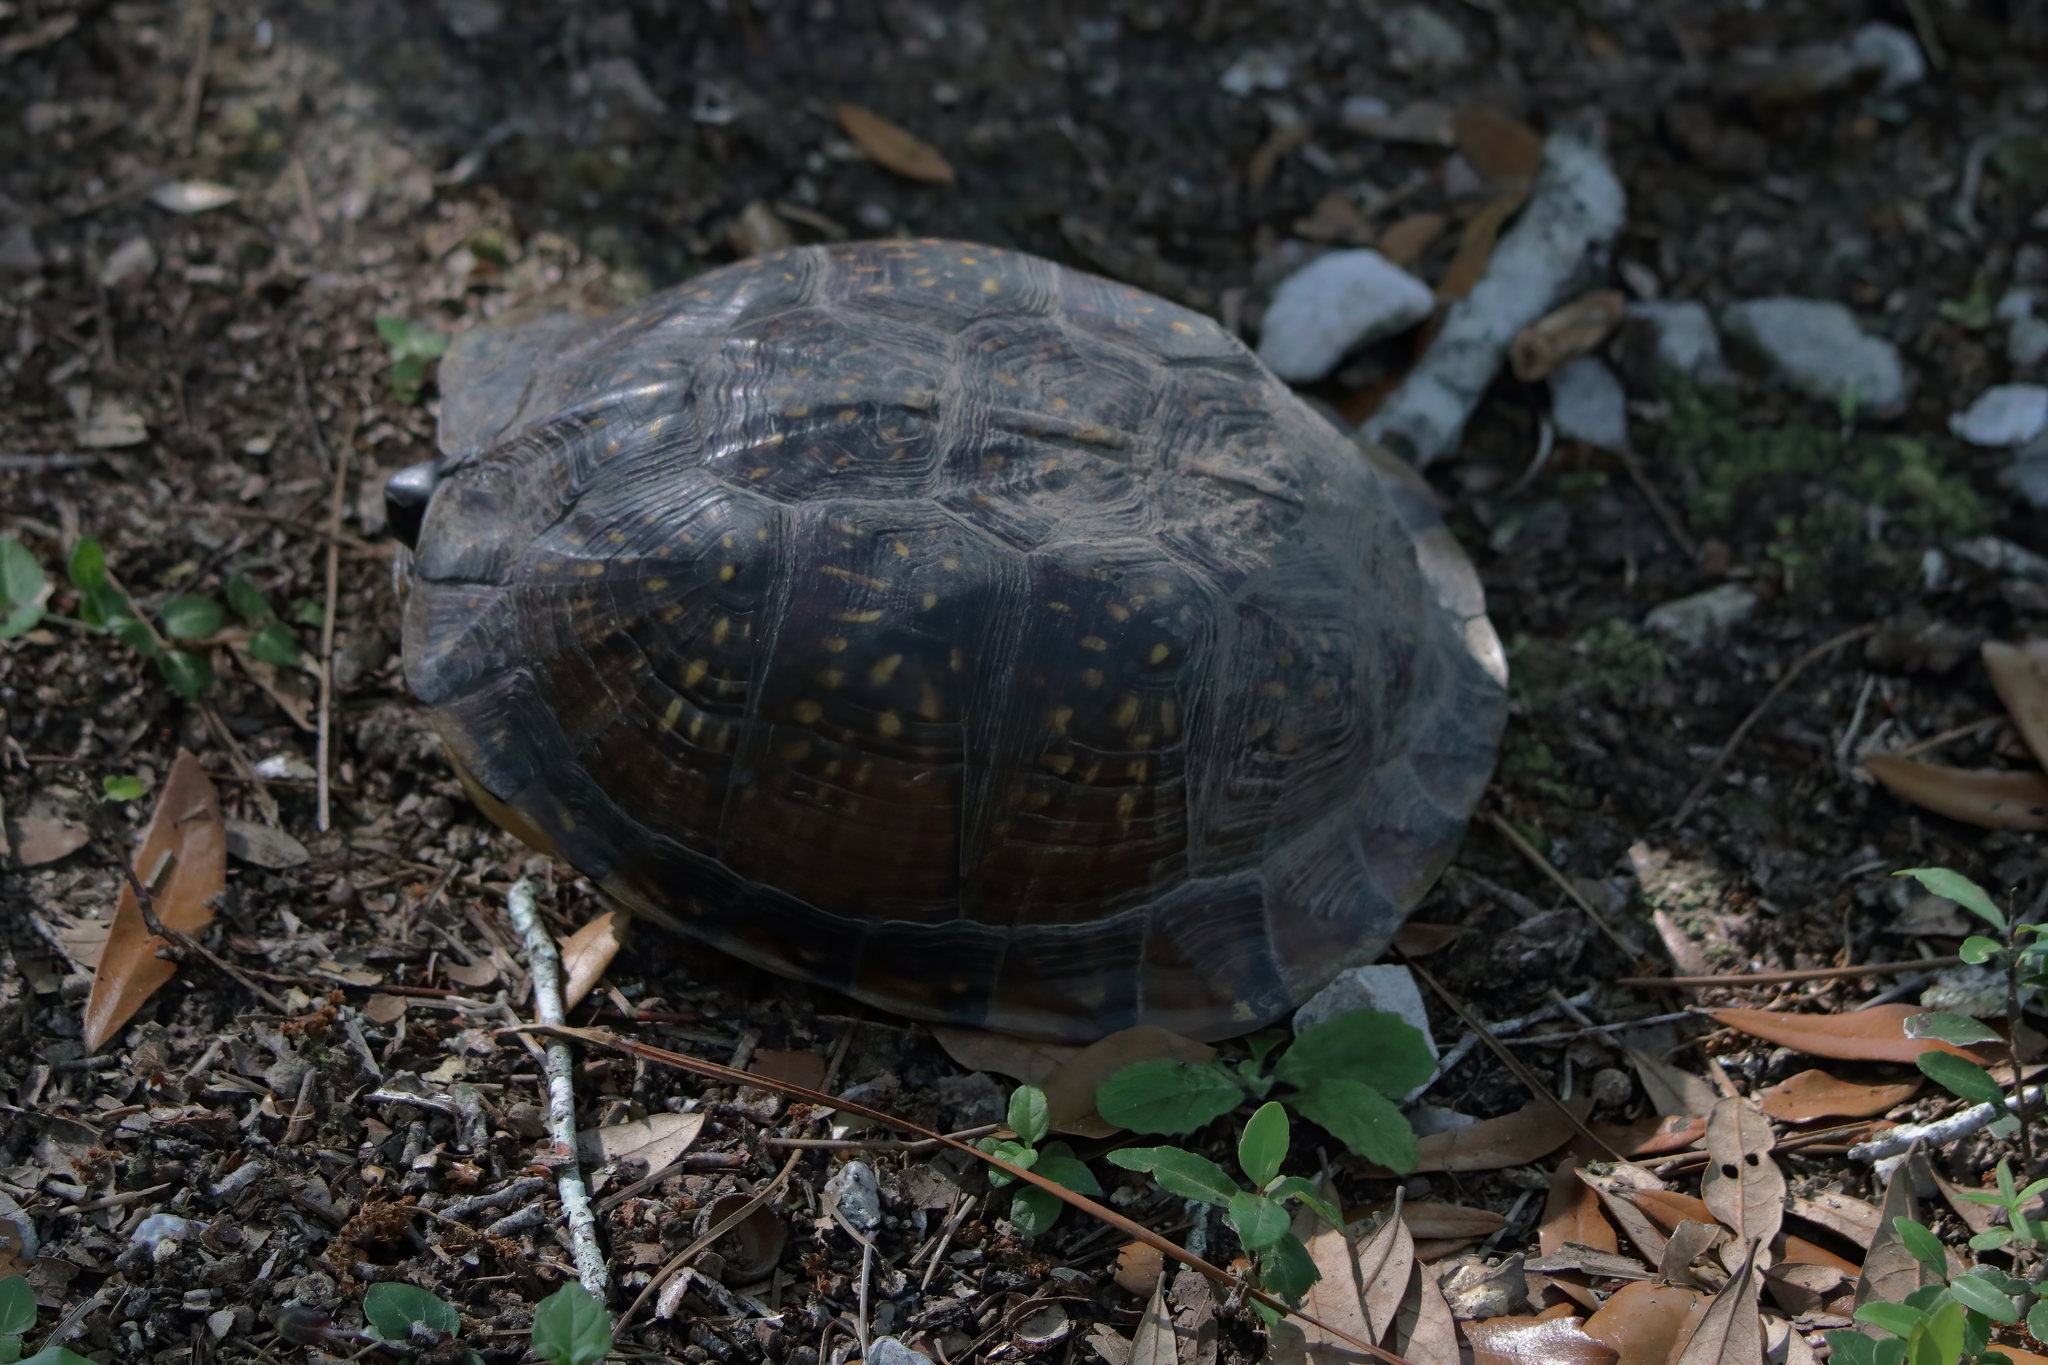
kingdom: Animalia
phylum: Chordata
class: Testudines
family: Emydidae
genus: Terrapene
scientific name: Terrapene carolina
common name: Common box turtle
